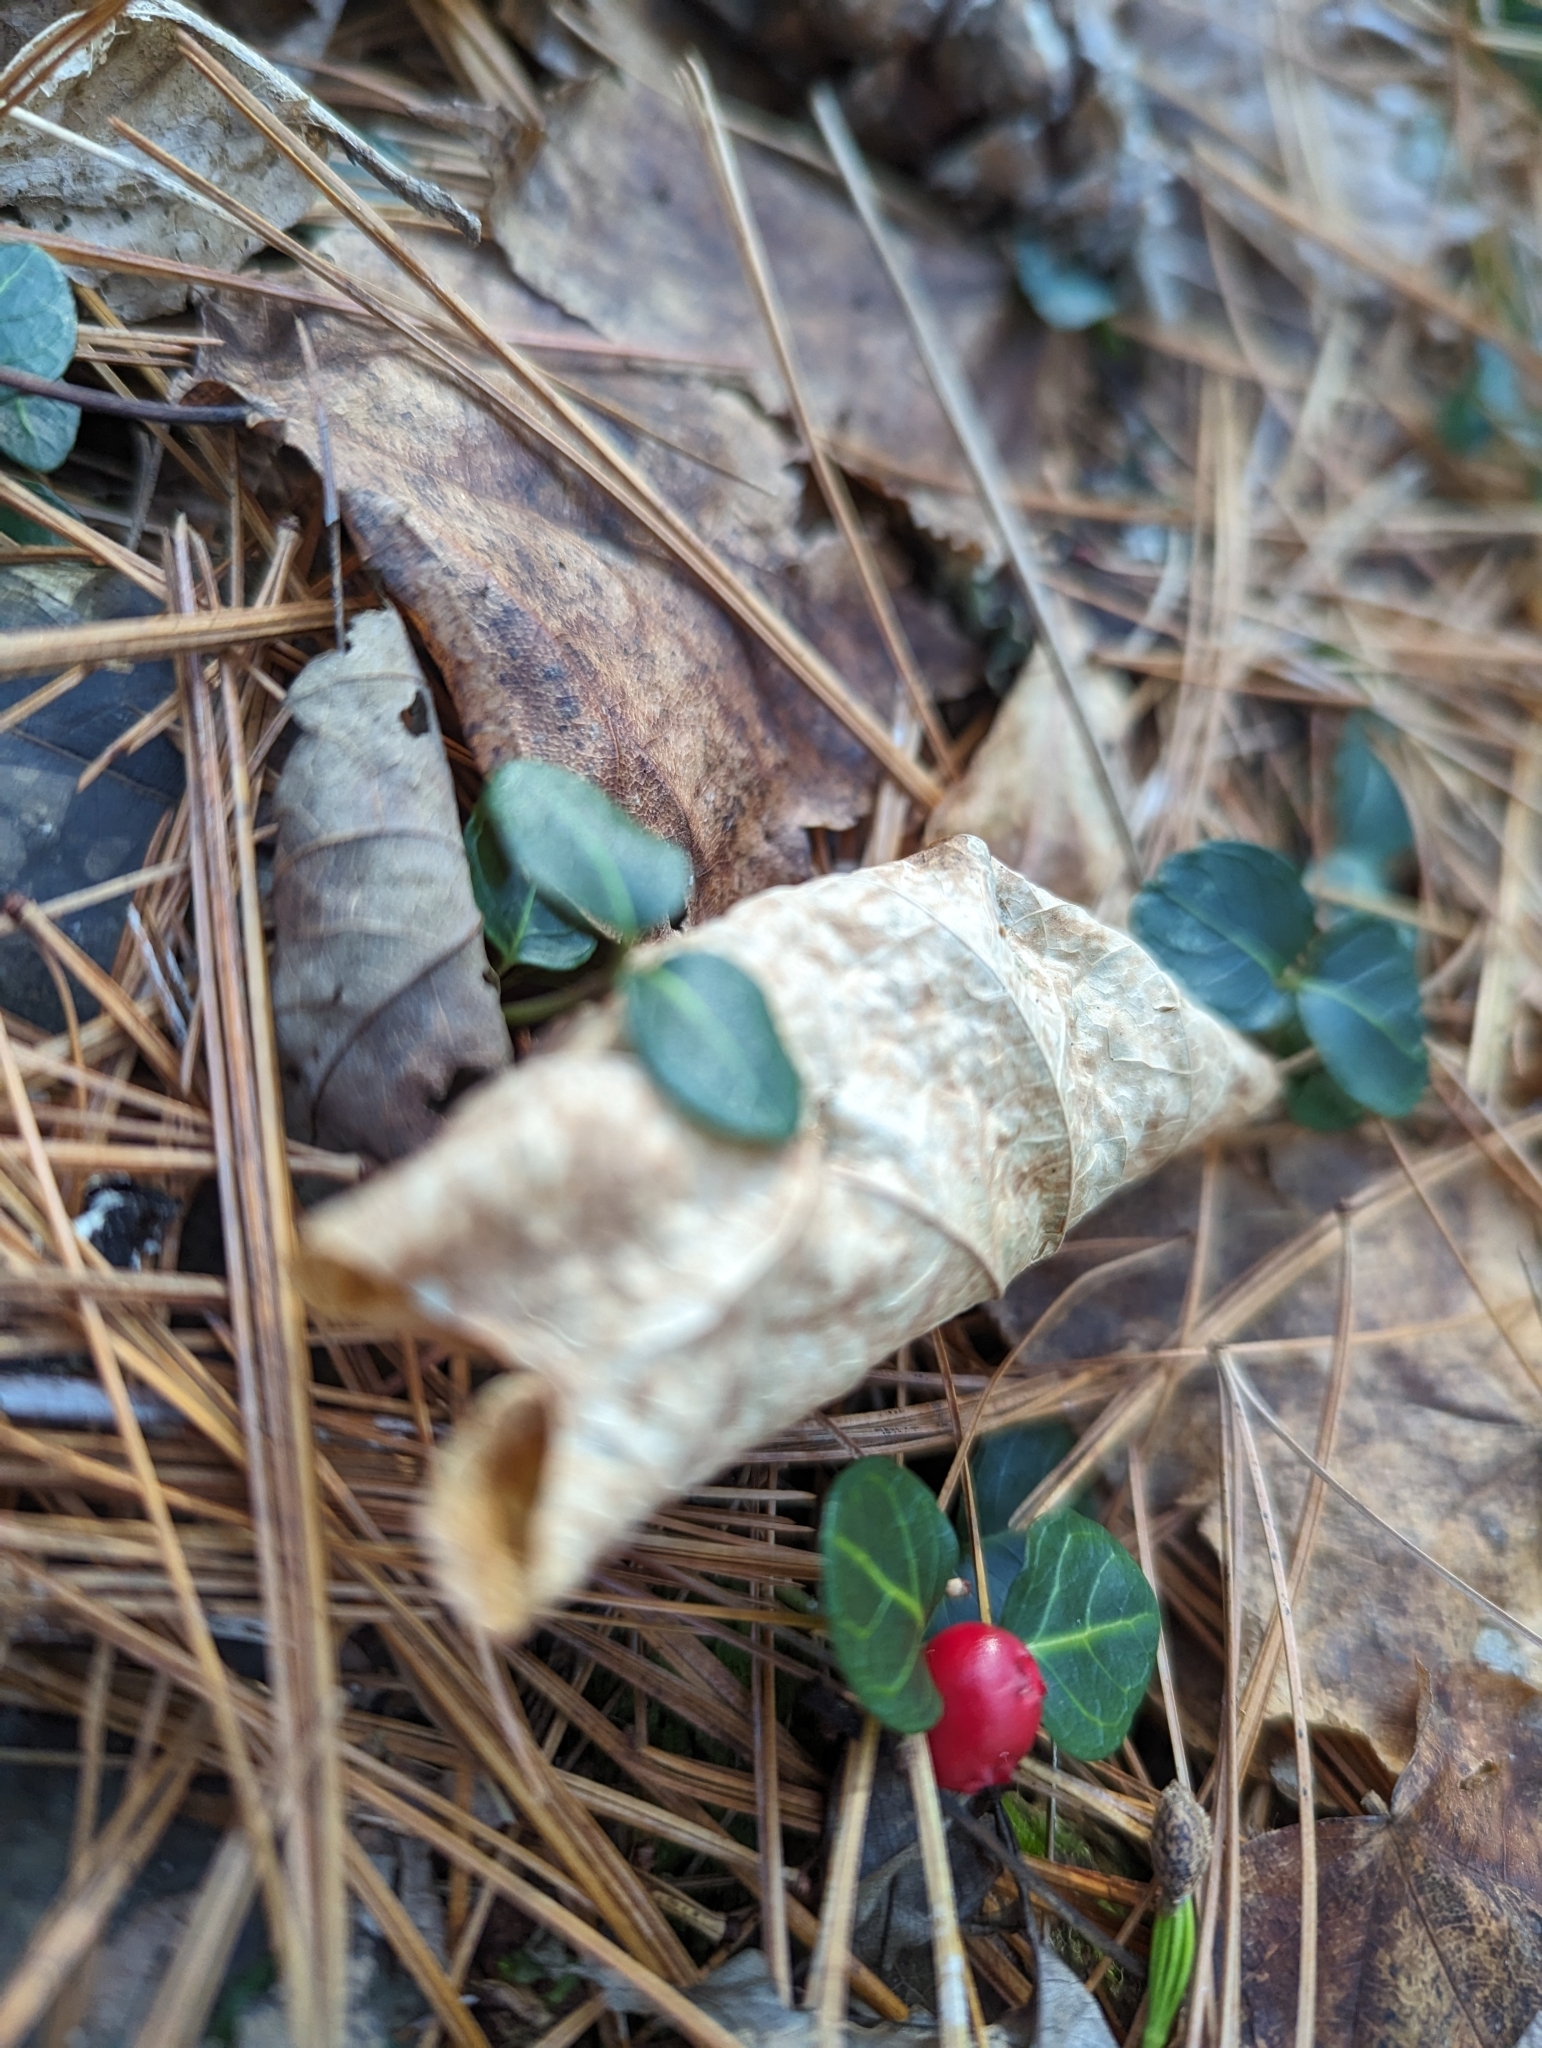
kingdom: Plantae
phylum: Tracheophyta
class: Magnoliopsida
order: Gentianales
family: Rubiaceae
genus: Mitchella
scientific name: Mitchella repens
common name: Partridge-berry
